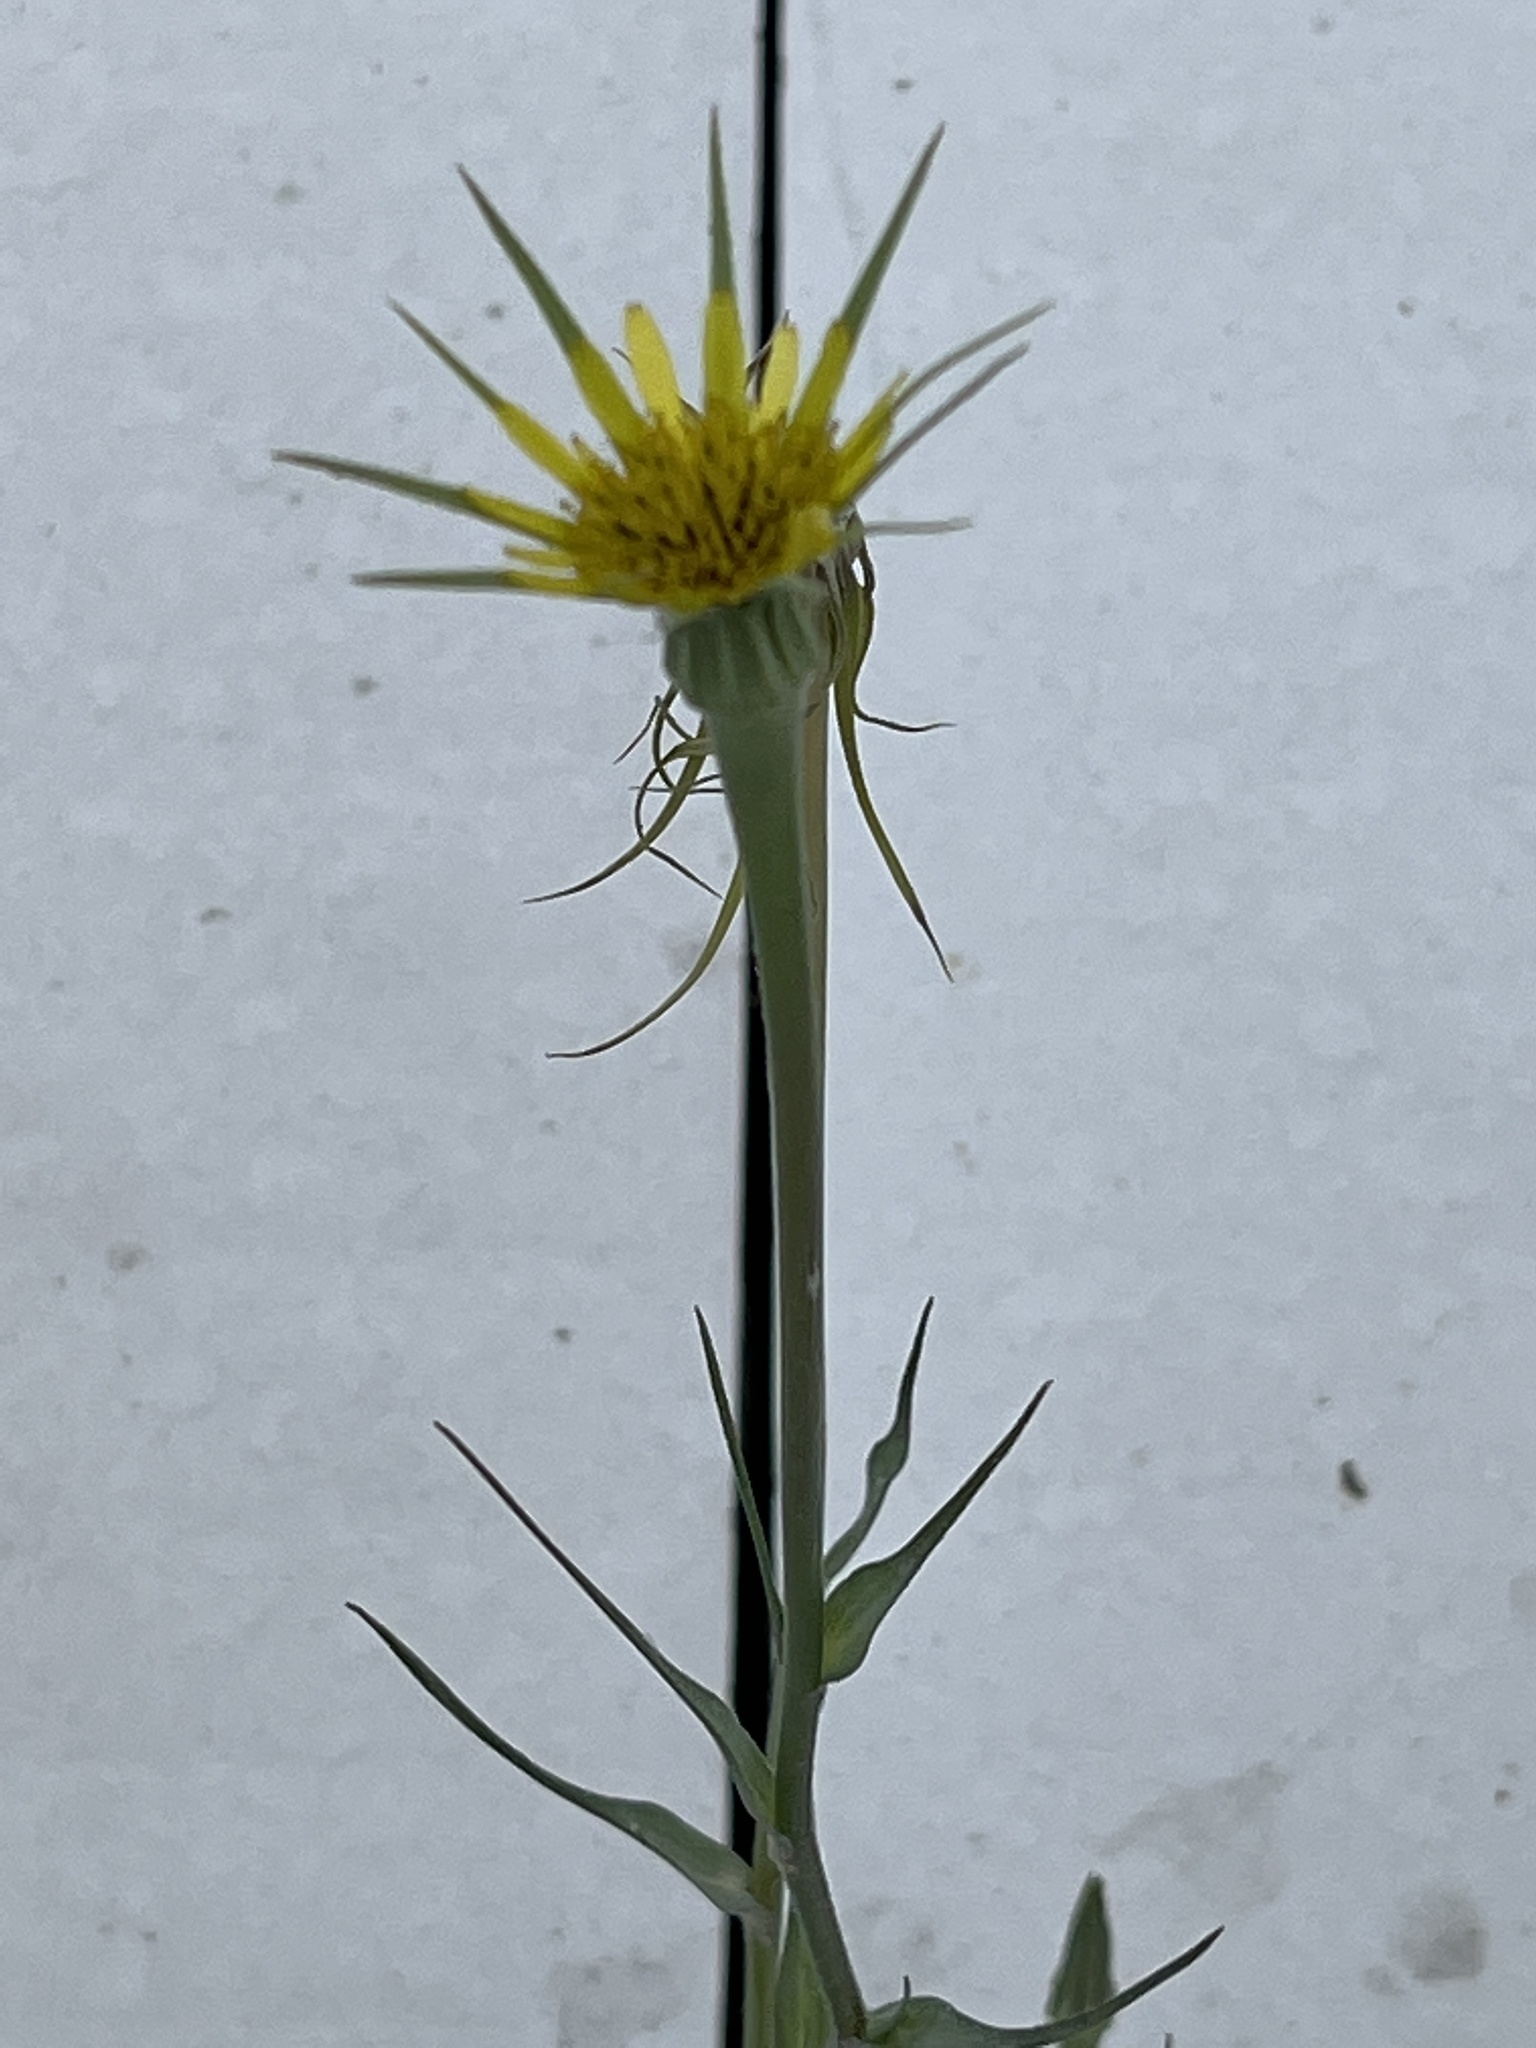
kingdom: Plantae
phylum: Tracheophyta
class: Magnoliopsida
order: Asterales
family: Asteraceae
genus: Tragopogon
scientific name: Tragopogon dubius
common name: Yellow salsify
